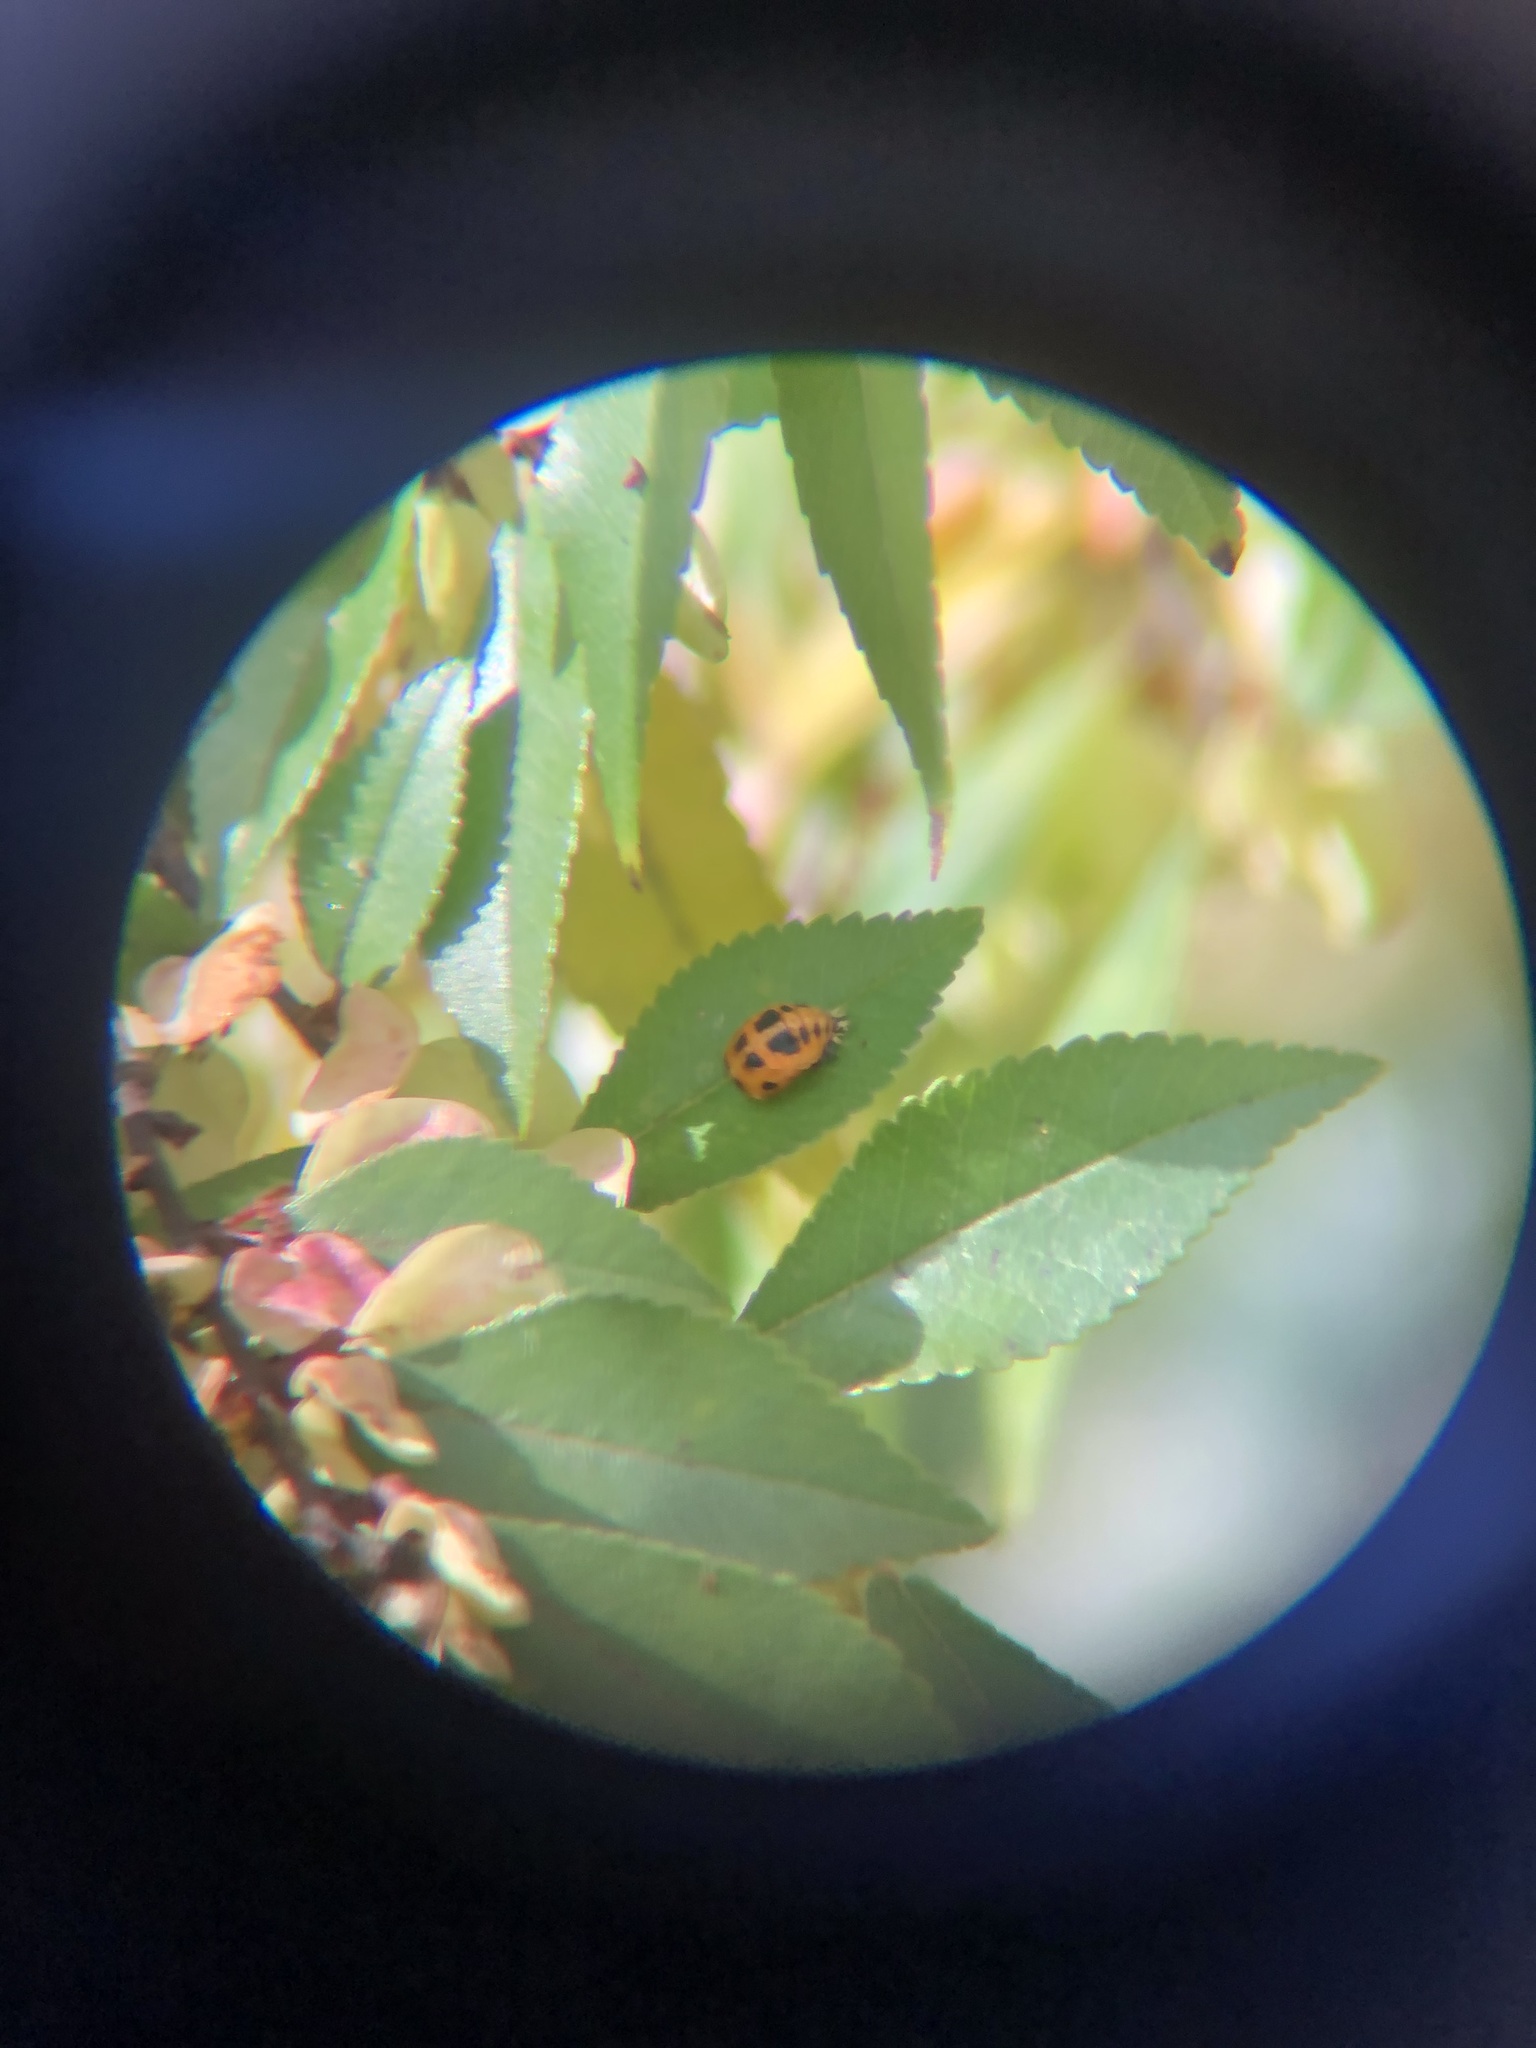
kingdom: Animalia
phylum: Arthropoda
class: Insecta
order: Coleoptera
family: Coccinellidae
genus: Harmonia
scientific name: Harmonia axyridis
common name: Harlequin ladybird
